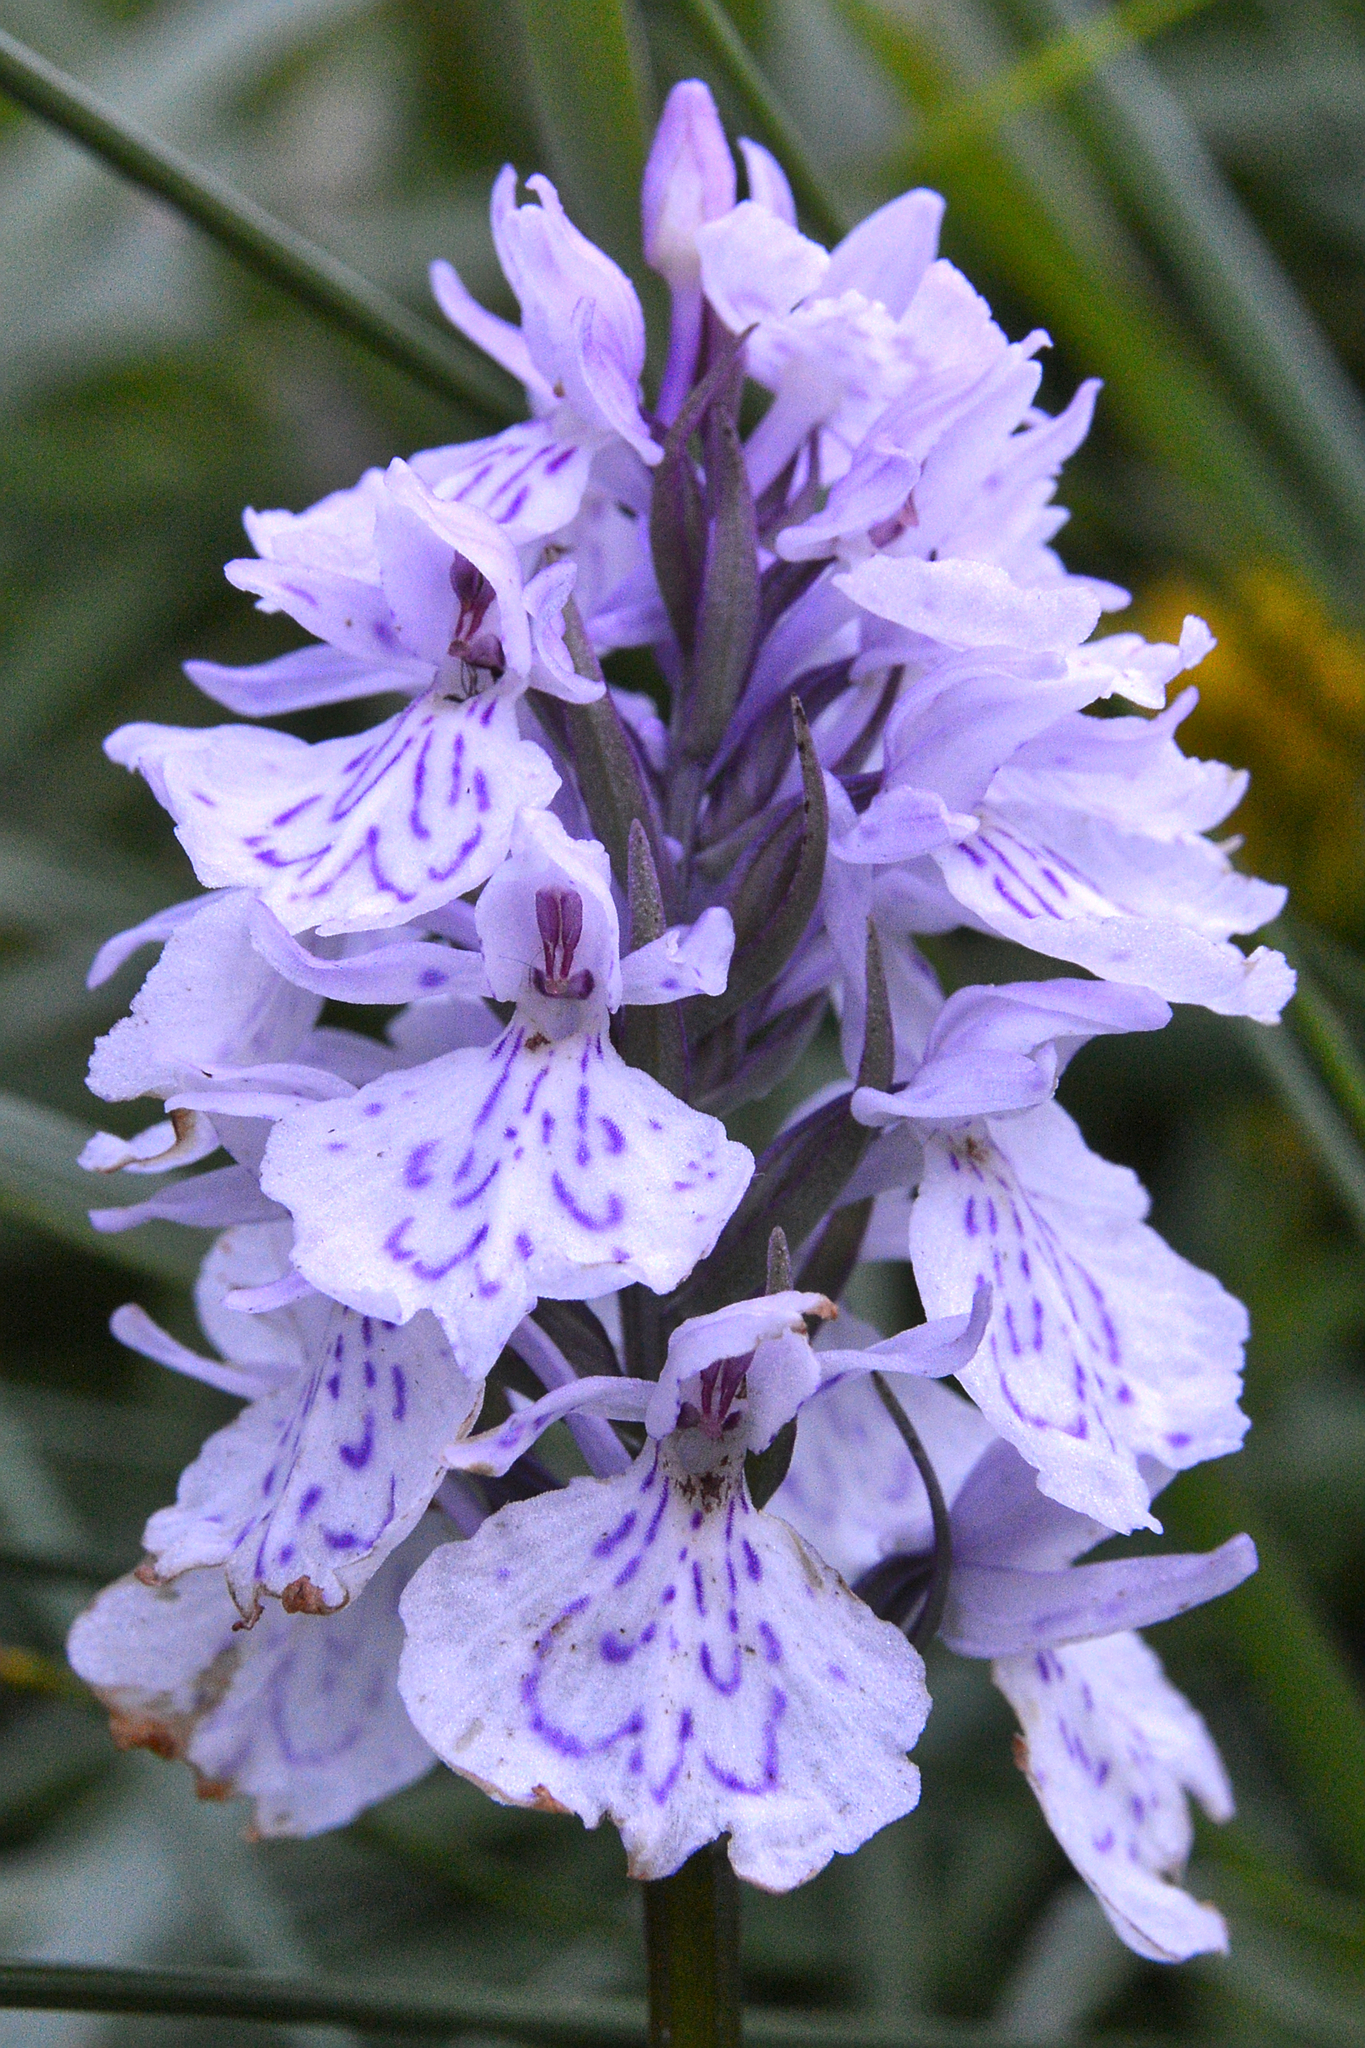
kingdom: Plantae
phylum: Tracheophyta
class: Liliopsida
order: Asparagales
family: Orchidaceae
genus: Dactylorhiza
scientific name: Dactylorhiza maculata
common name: Heath spotted-orchid
